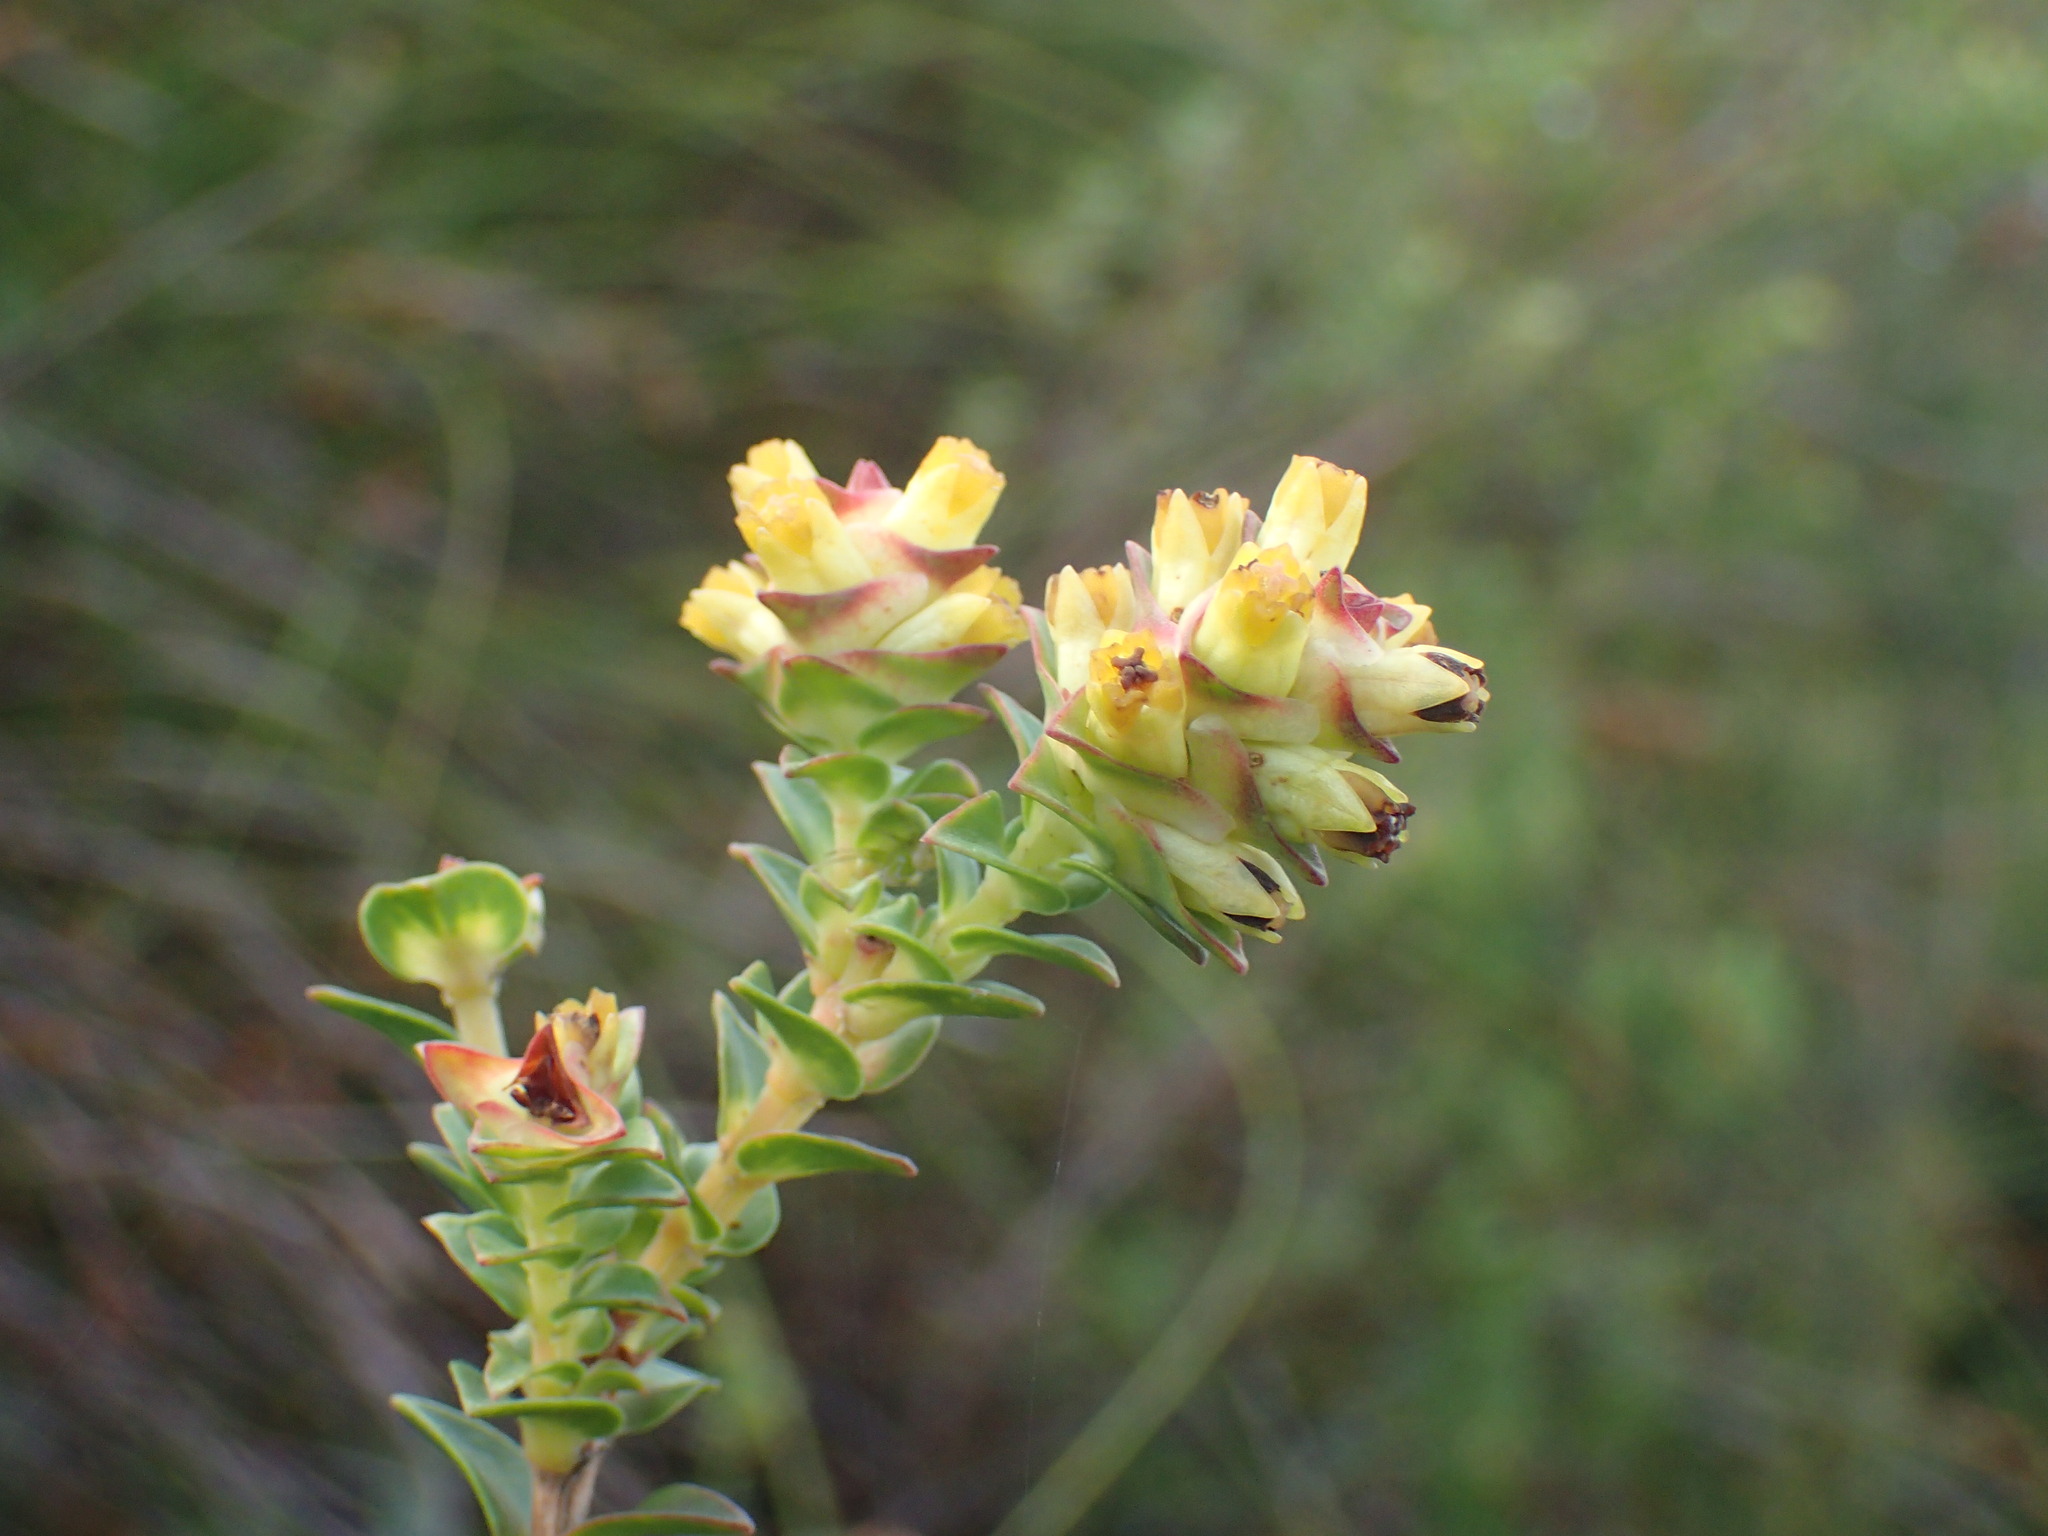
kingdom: Plantae
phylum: Tracheophyta
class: Magnoliopsida
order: Myrtales
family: Penaeaceae
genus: Penaea
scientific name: Penaea cneorum
